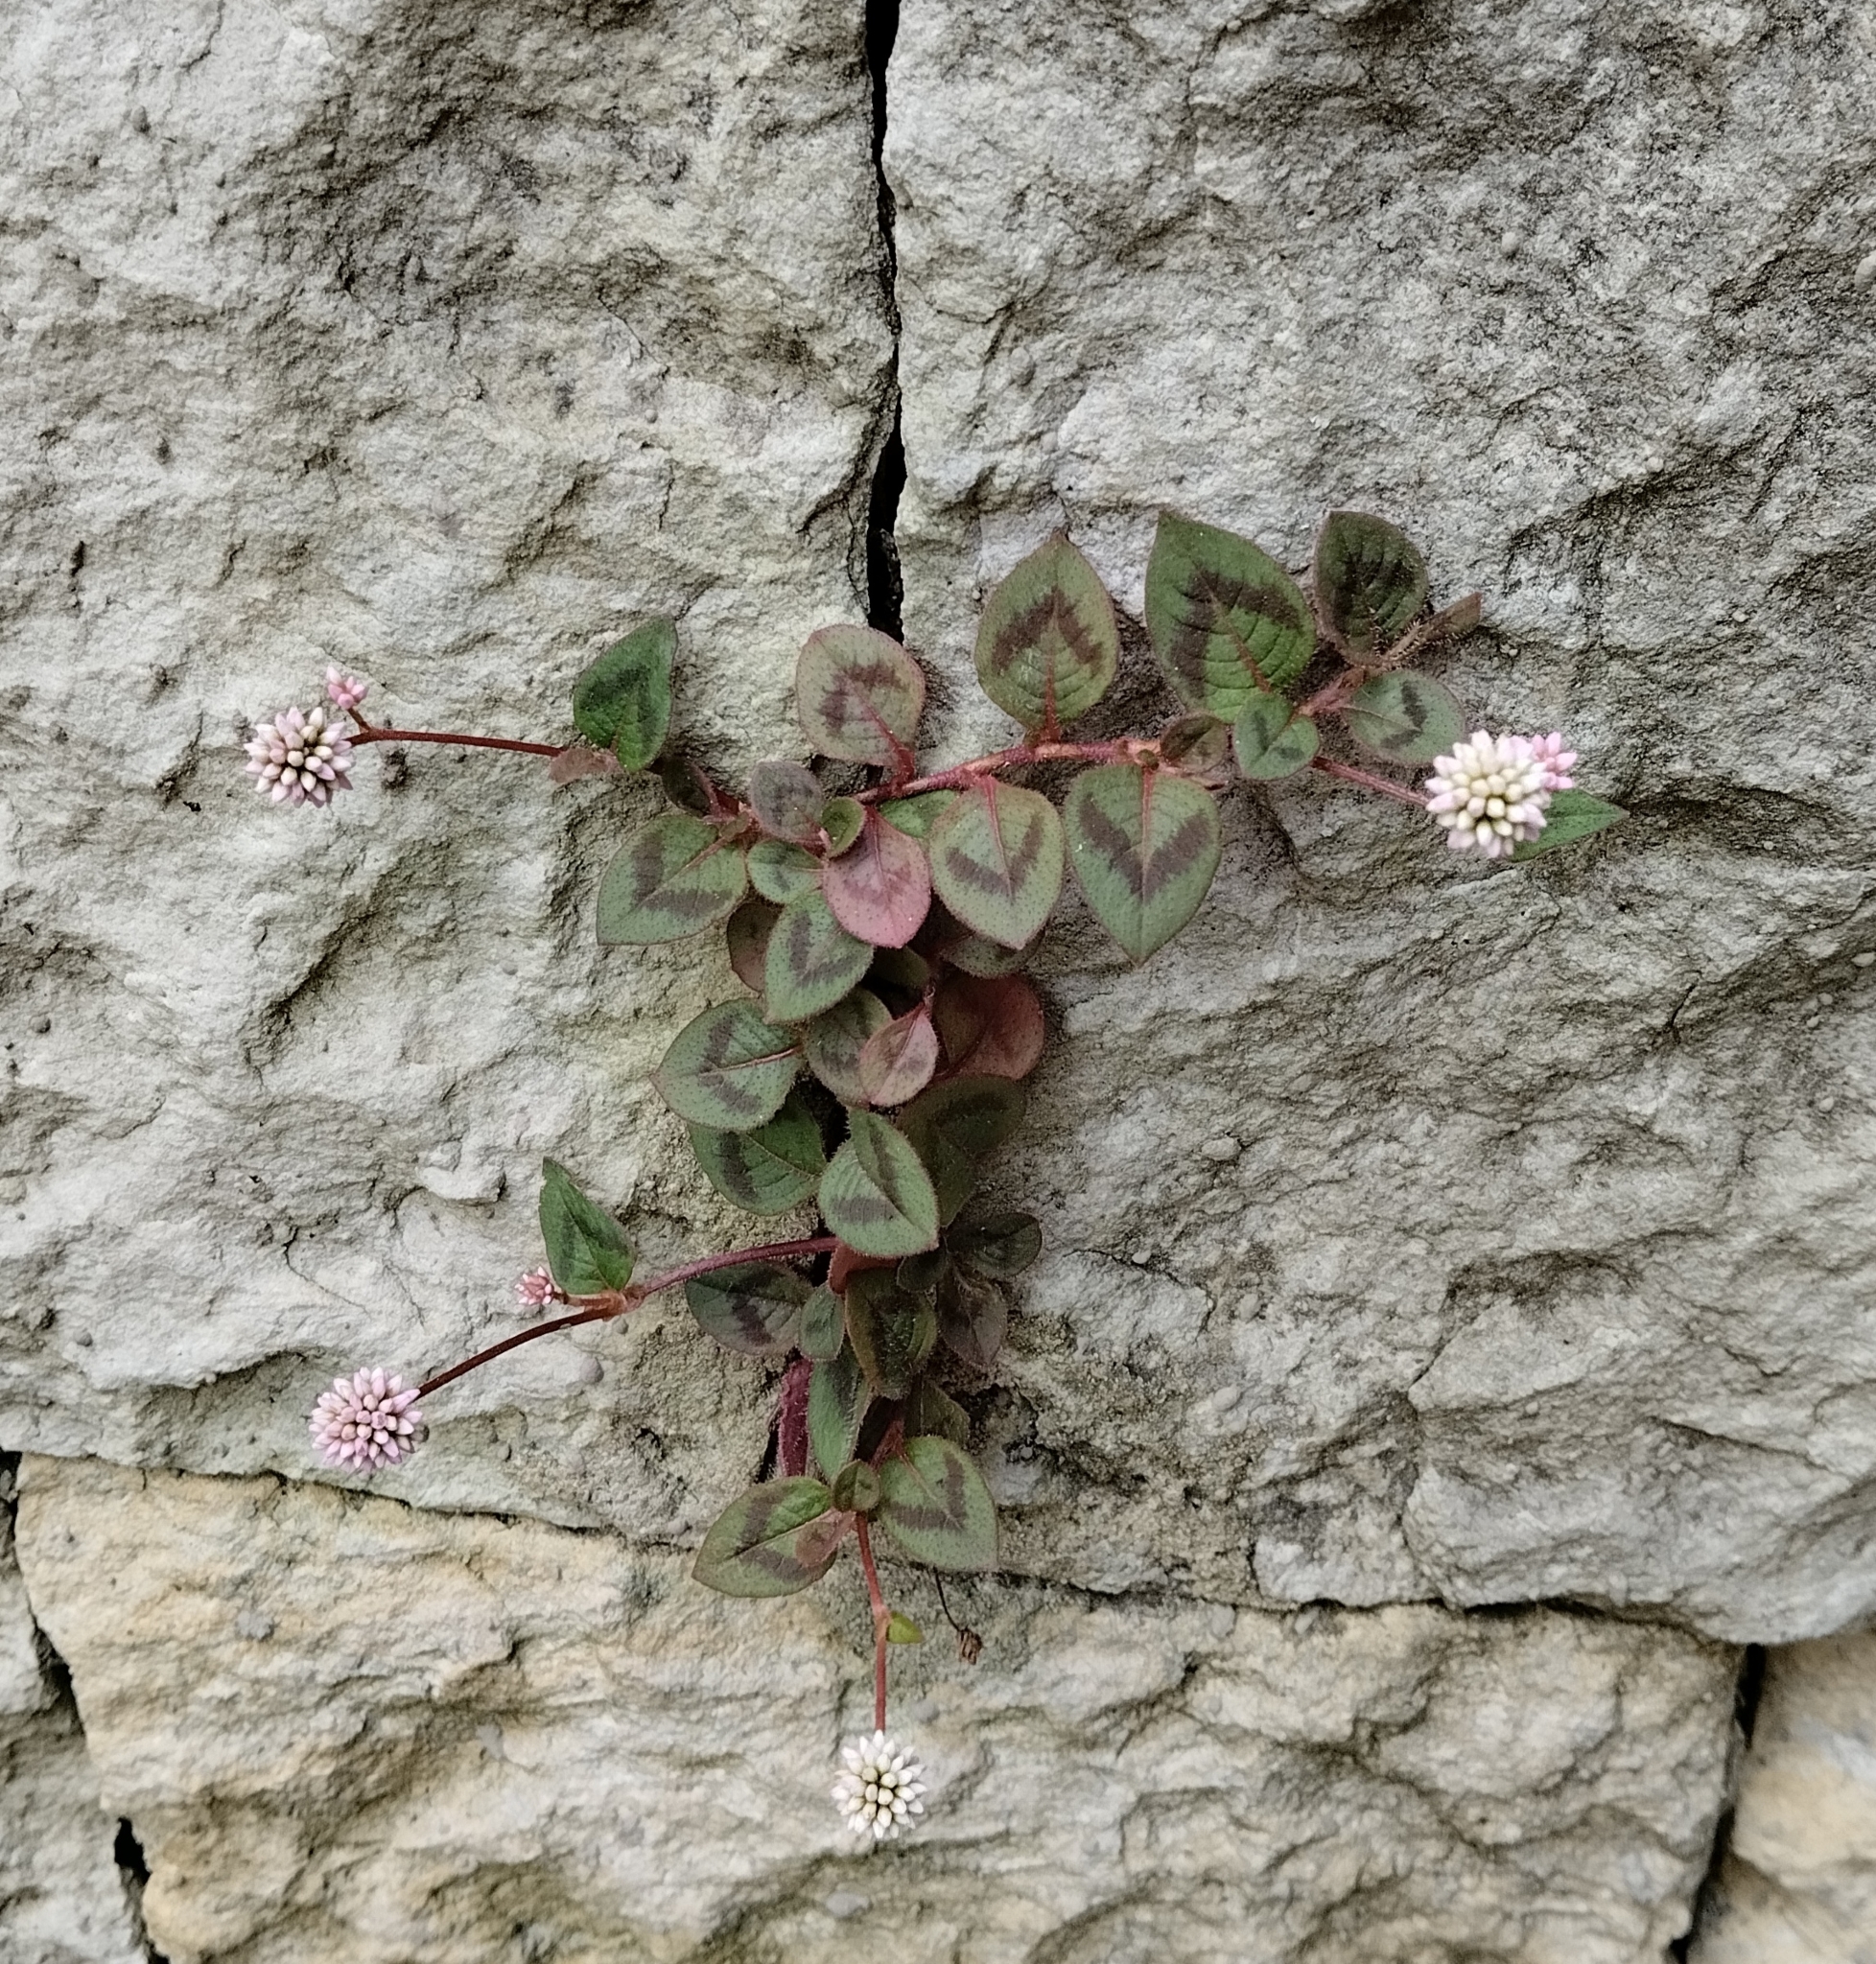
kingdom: Plantae
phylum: Tracheophyta
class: Magnoliopsida
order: Caryophyllales
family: Polygonaceae
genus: Persicaria
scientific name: Persicaria capitata
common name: Pinkhead smartweed
